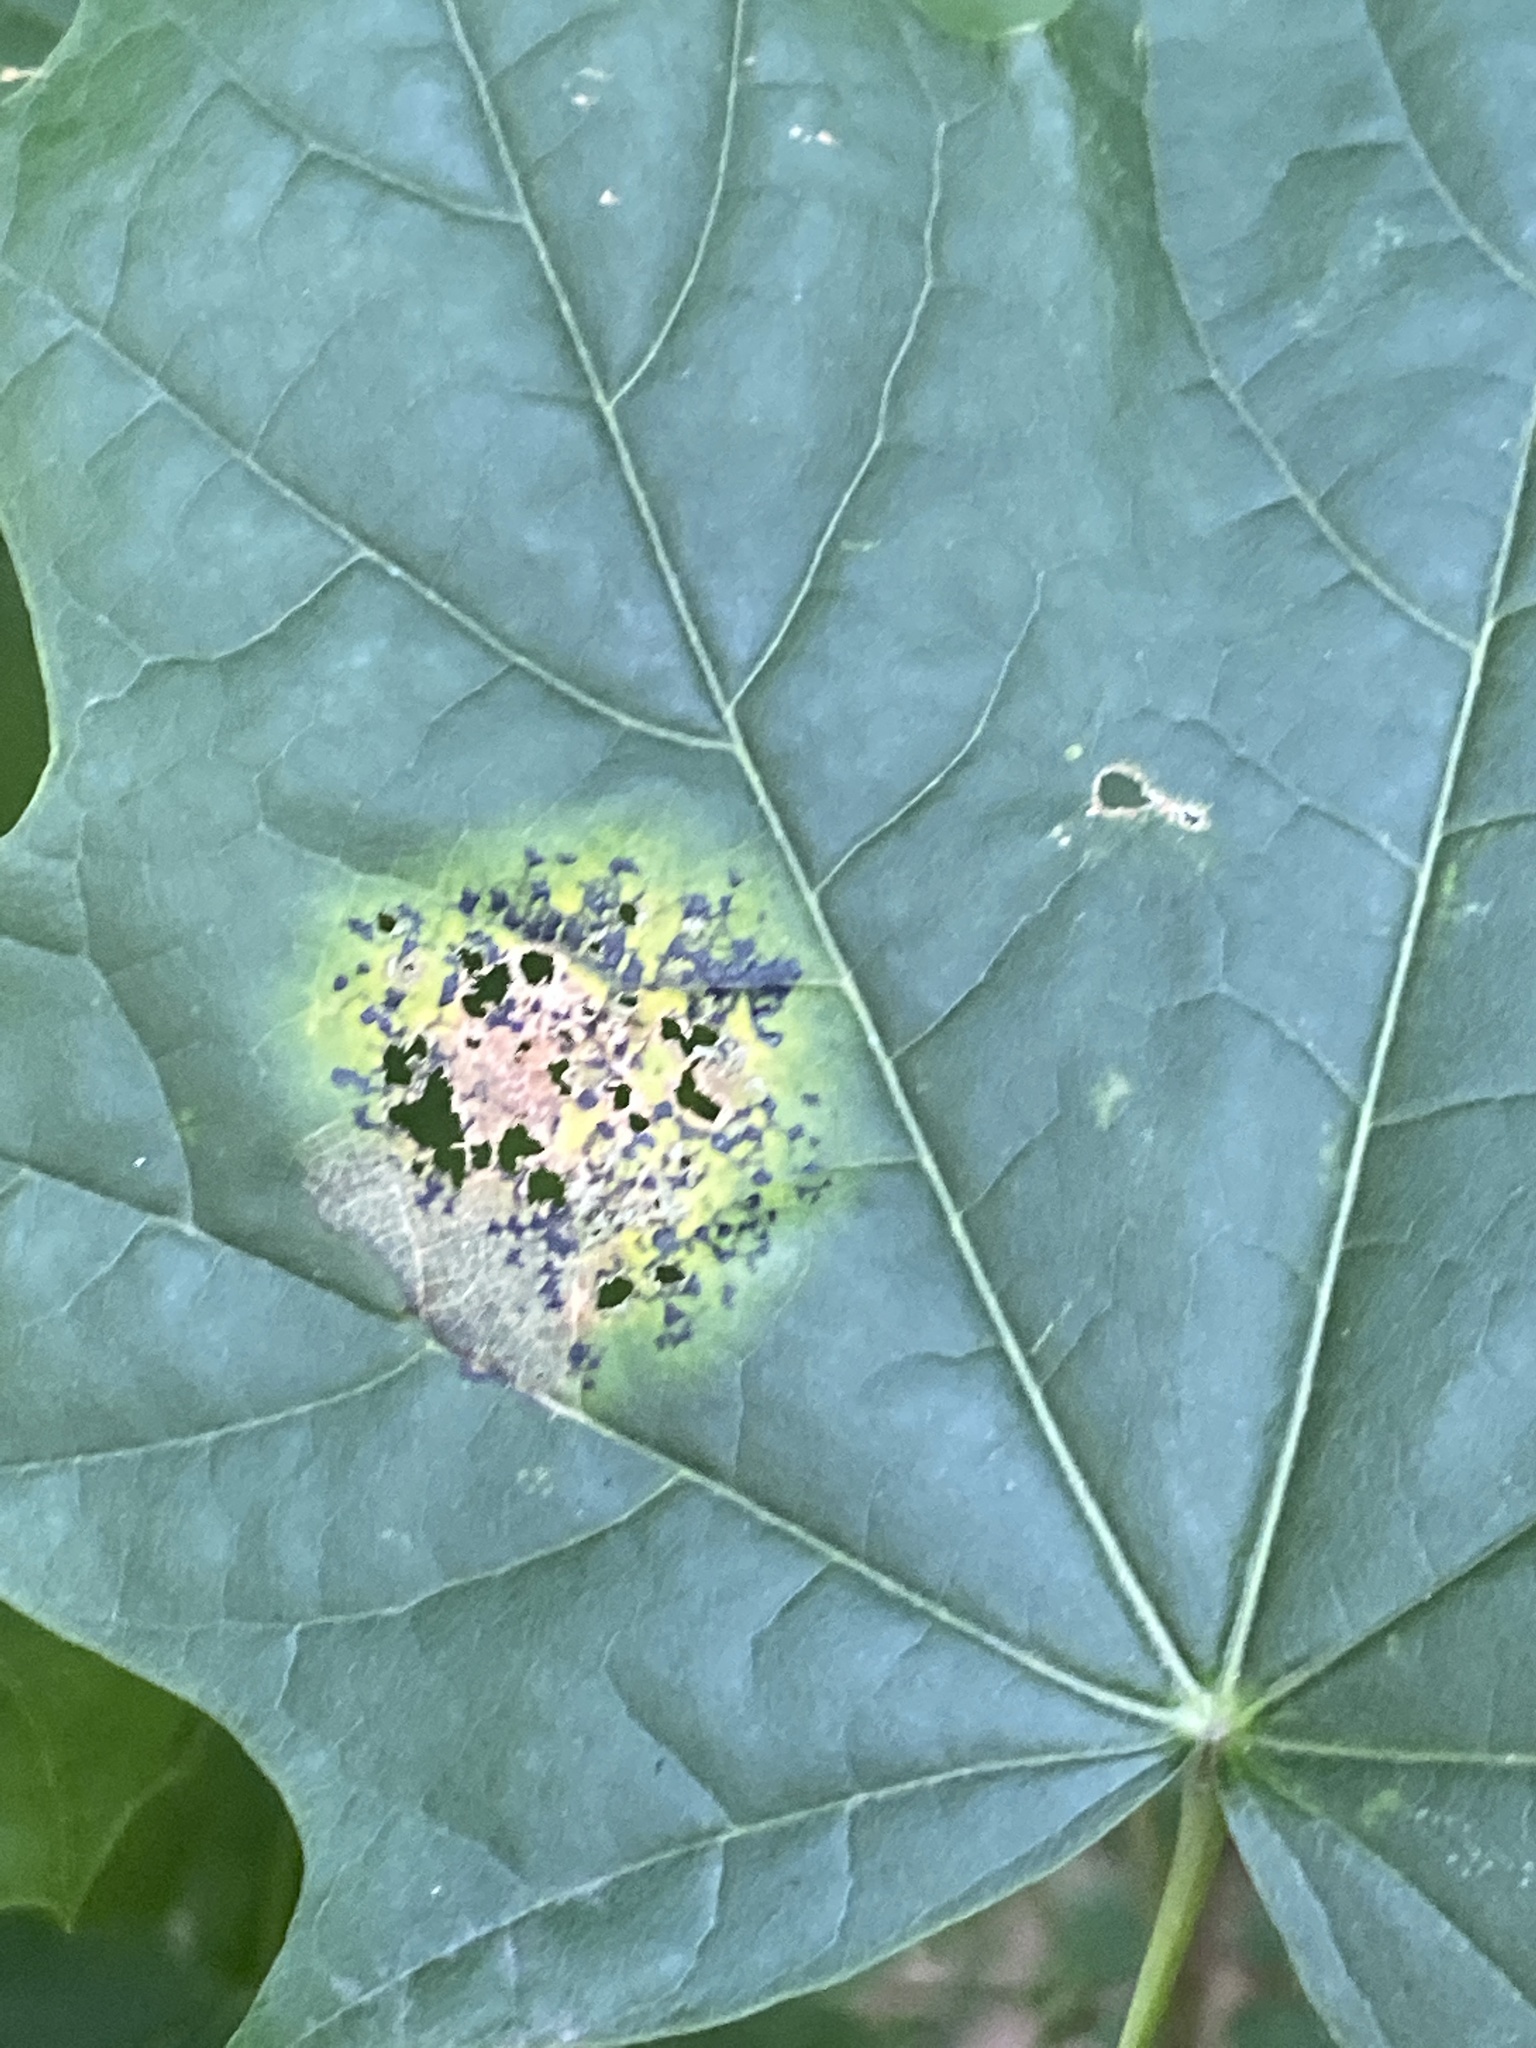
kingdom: Fungi
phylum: Ascomycota
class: Leotiomycetes
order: Rhytismatales
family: Rhytismataceae
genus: Rhytisma
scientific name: Rhytisma acerinum
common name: European tar spot
